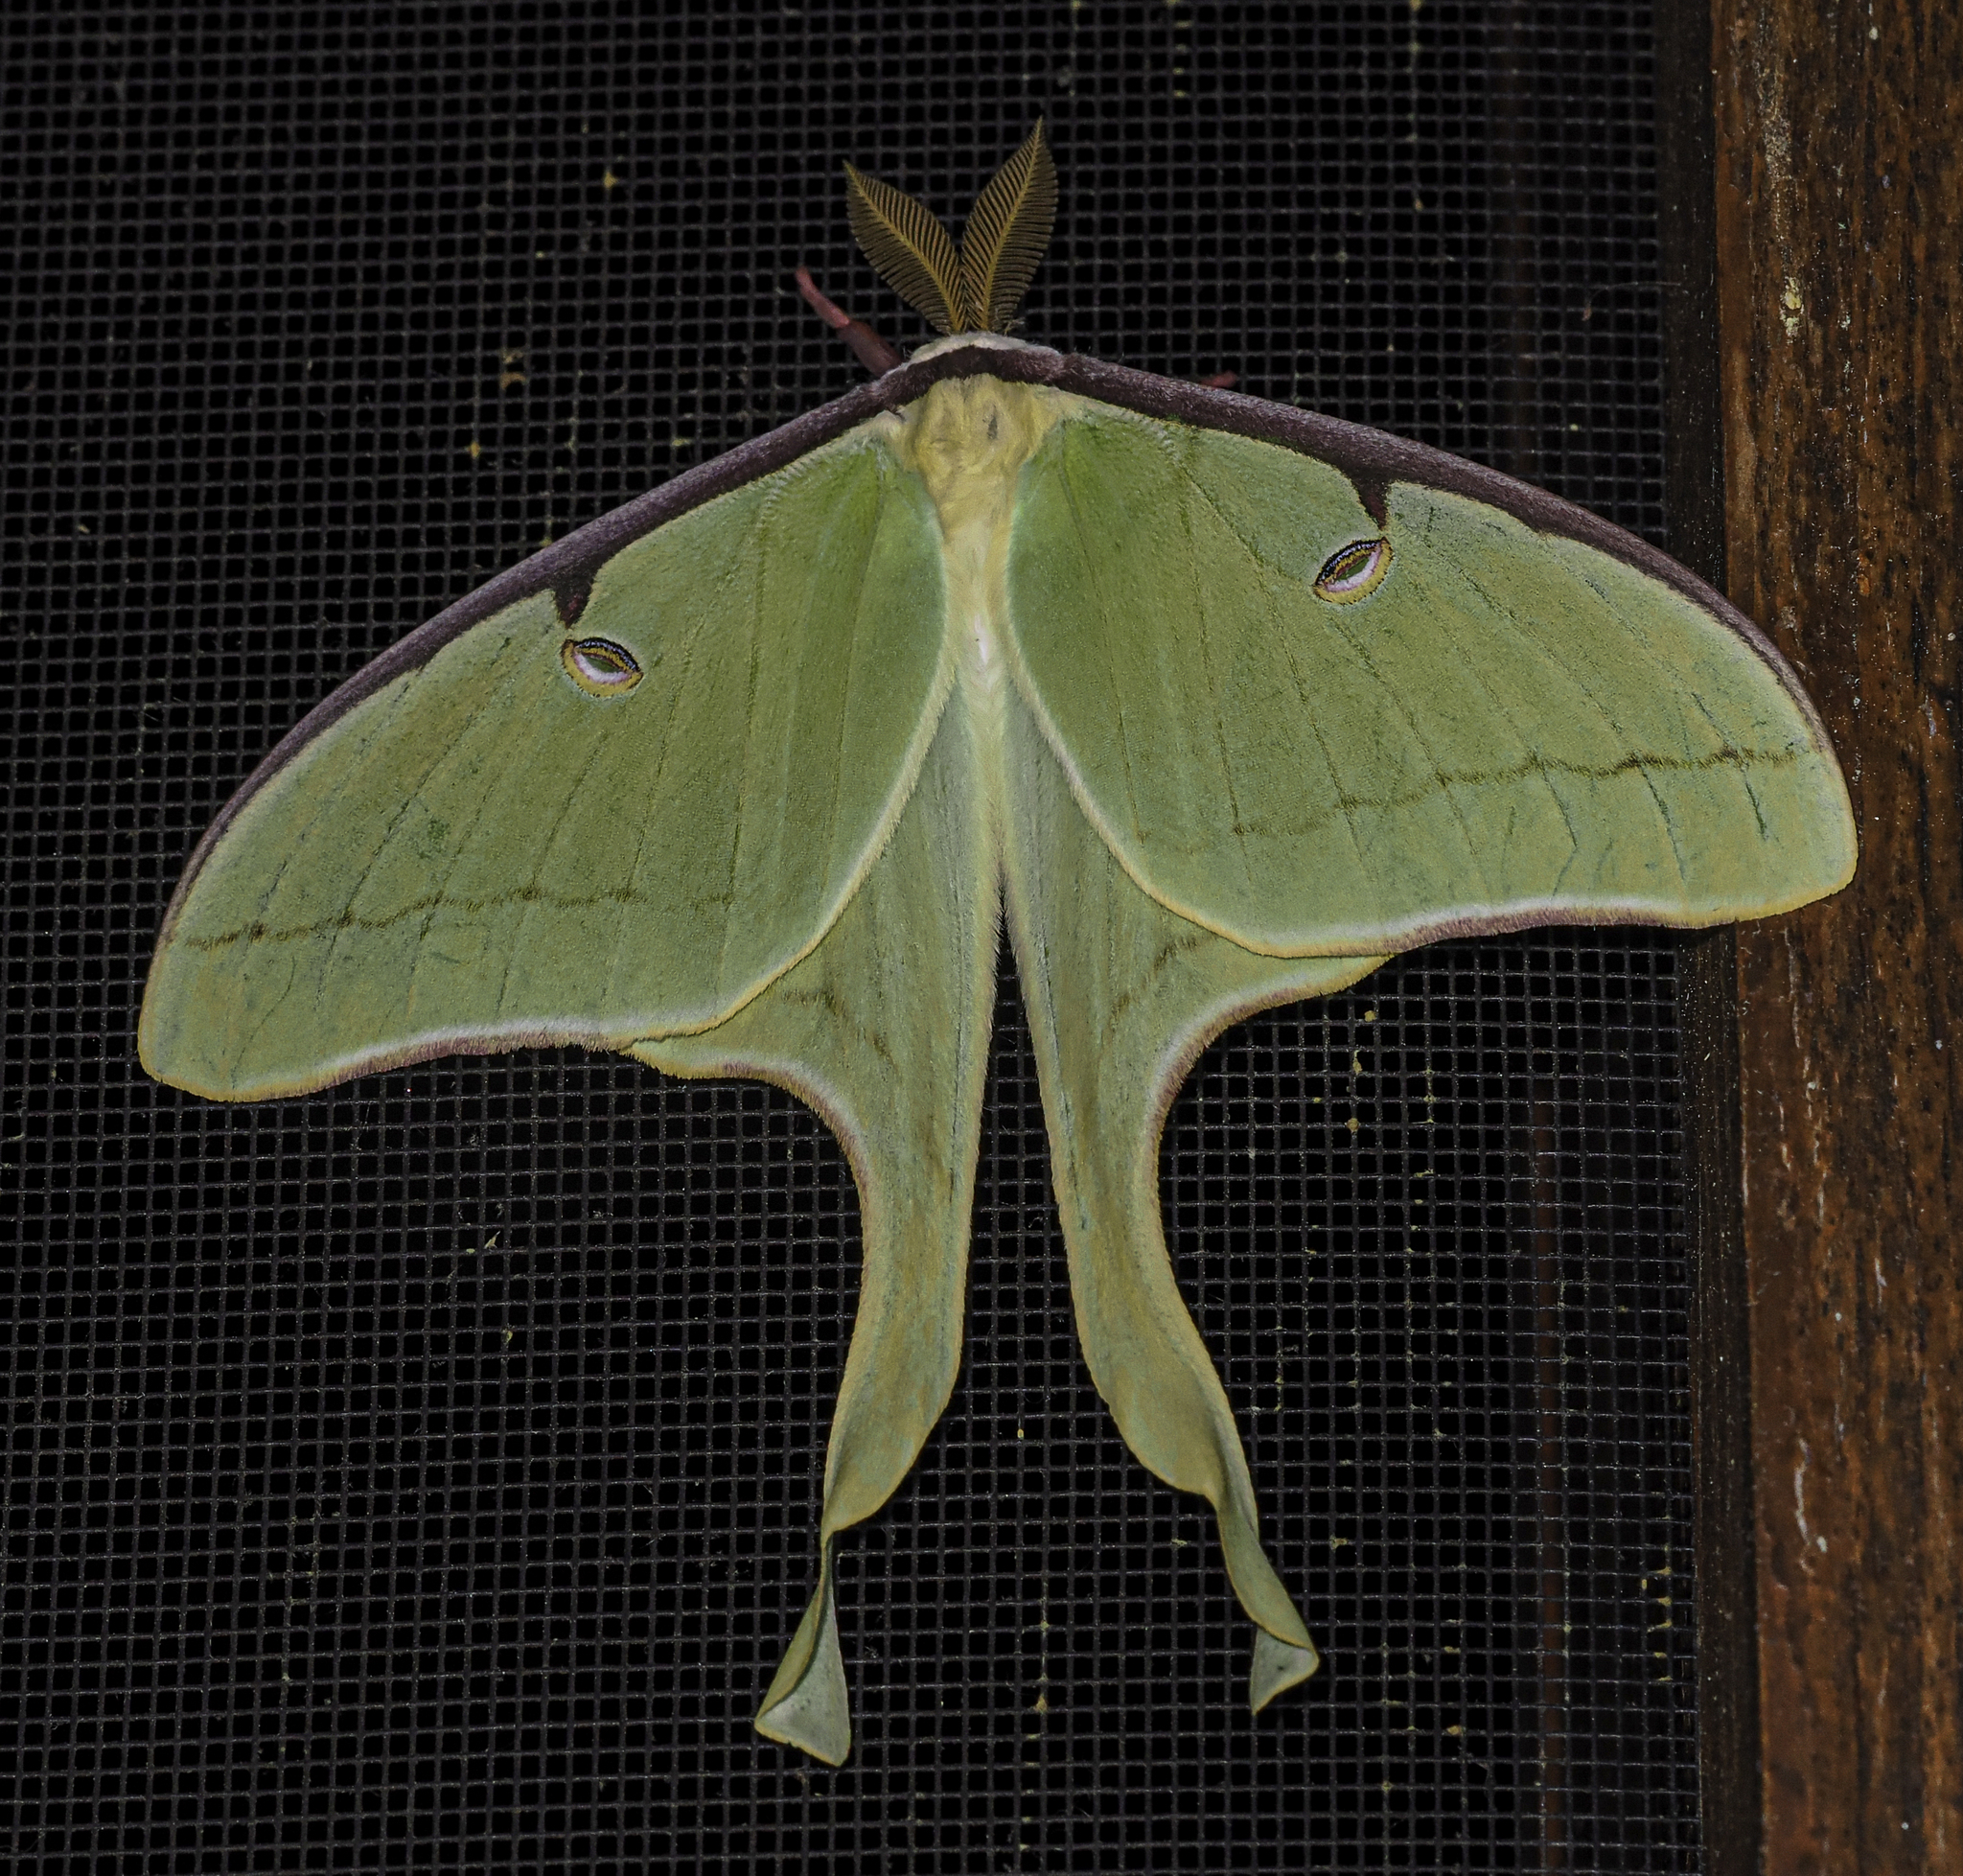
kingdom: Animalia
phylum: Arthropoda
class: Insecta
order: Lepidoptera
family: Saturniidae
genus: Actias
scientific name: Actias luna
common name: Luna moth
